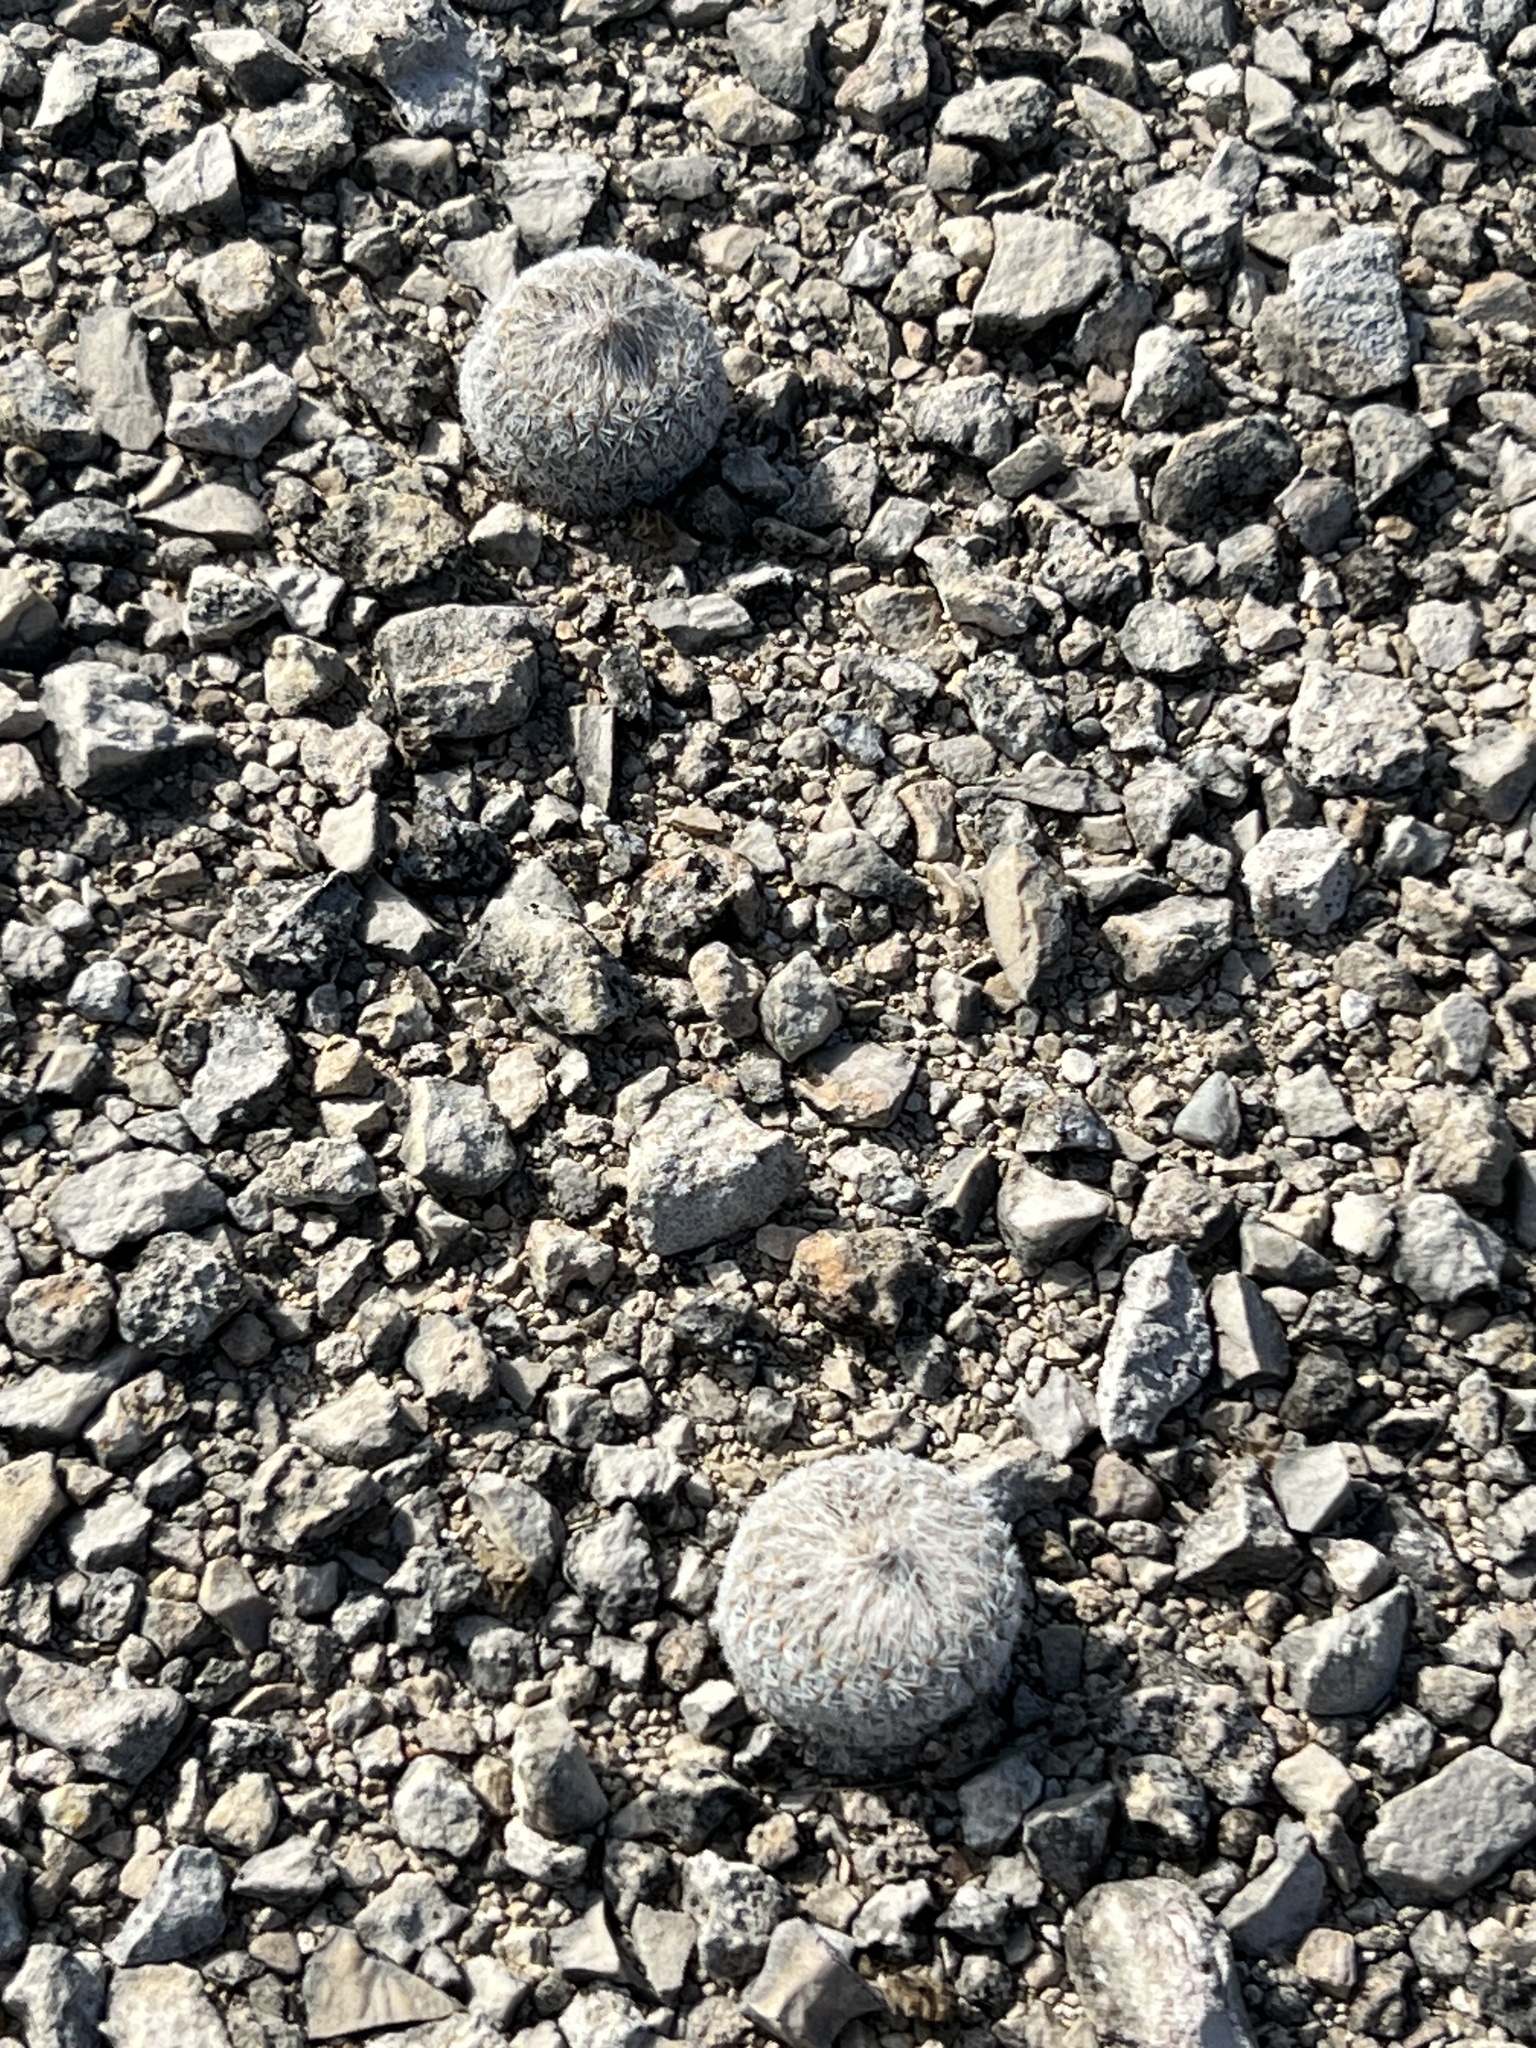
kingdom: Plantae
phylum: Tracheophyta
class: Magnoliopsida
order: Caryophyllales
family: Cactaceae
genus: Epithelantha
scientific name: Epithelantha micromeris
